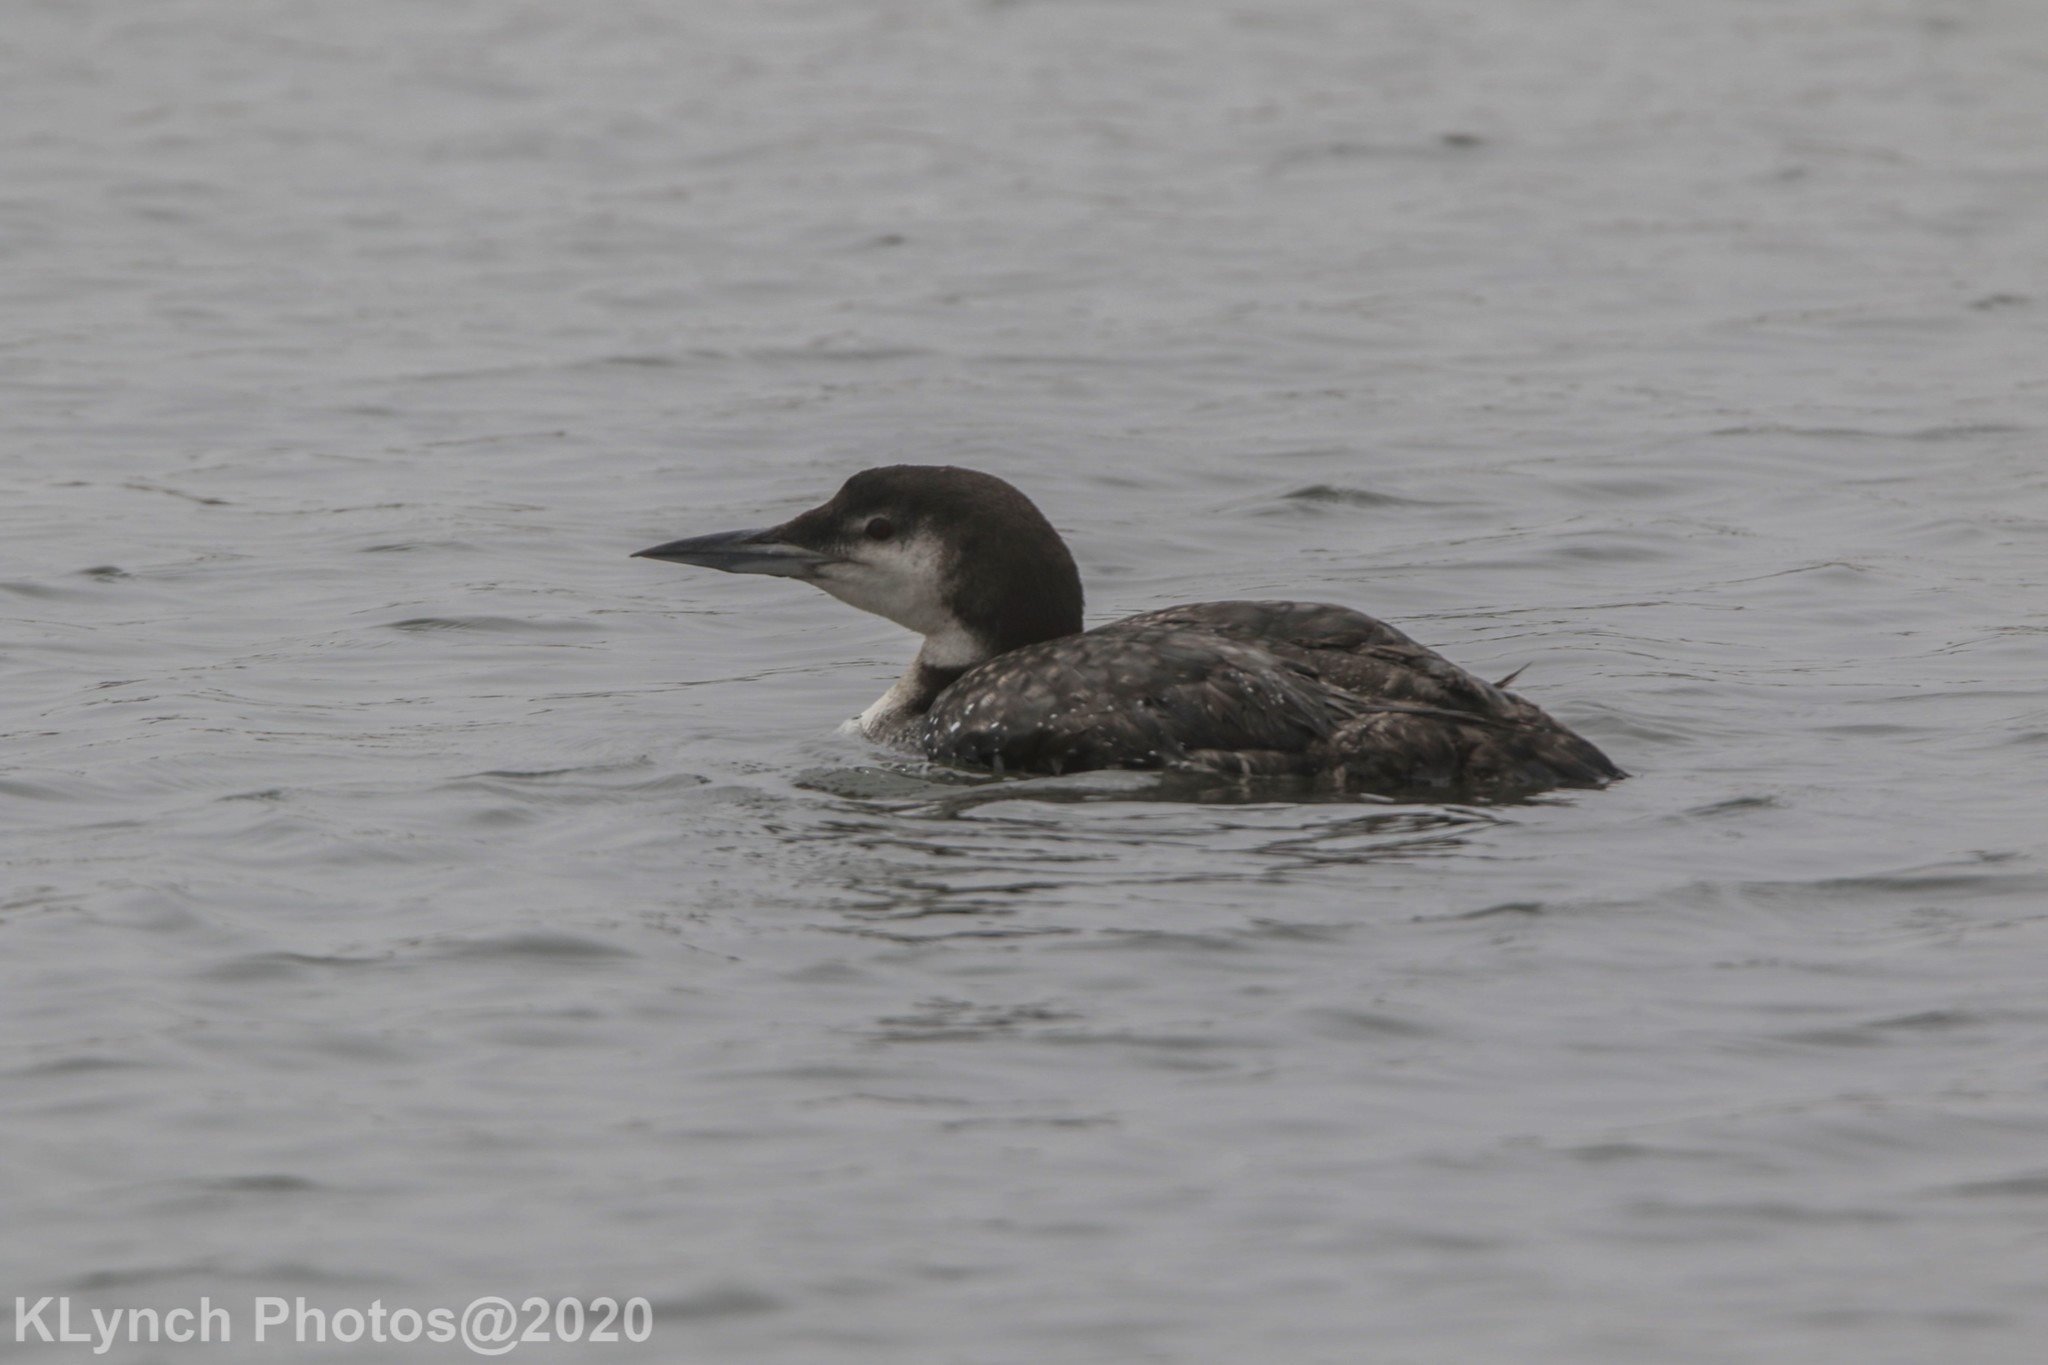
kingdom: Animalia
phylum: Chordata
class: Aves
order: Gaviiformes
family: Gaviidae
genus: Gavia
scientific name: Gavia immer
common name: Common loon
